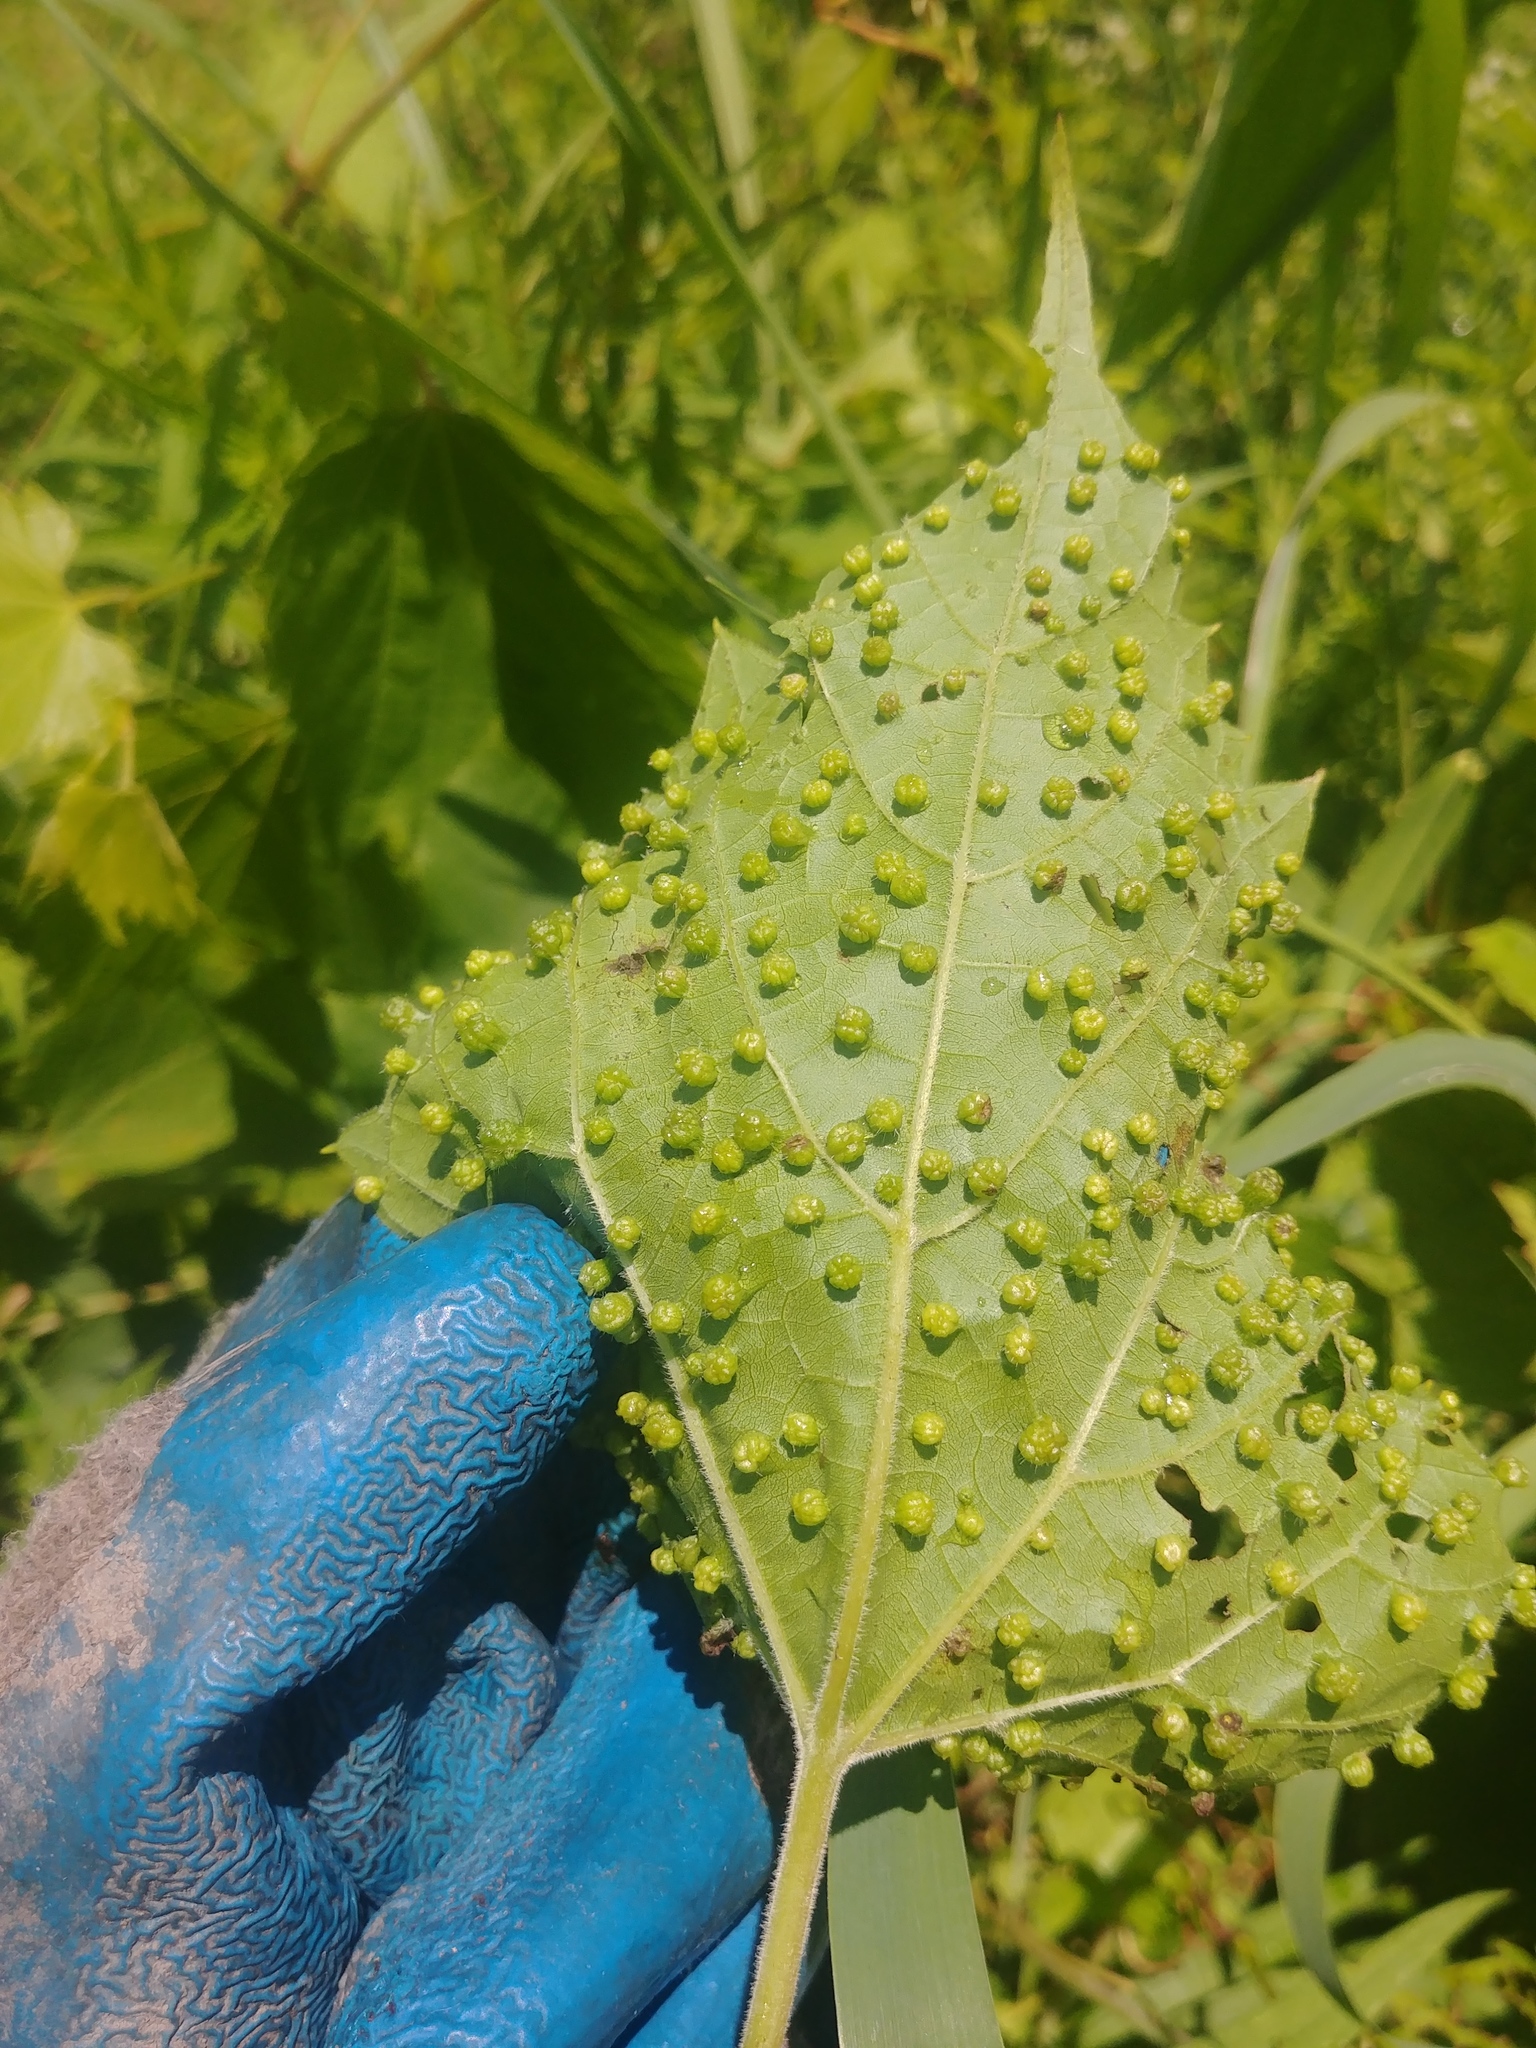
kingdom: Animalia
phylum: Arthropoda
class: Insecta
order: Hemiptera
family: Phylloxeridae
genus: Daktulosphaira
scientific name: Daktulosphaira vitifoliae
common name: Grape phylloxera
